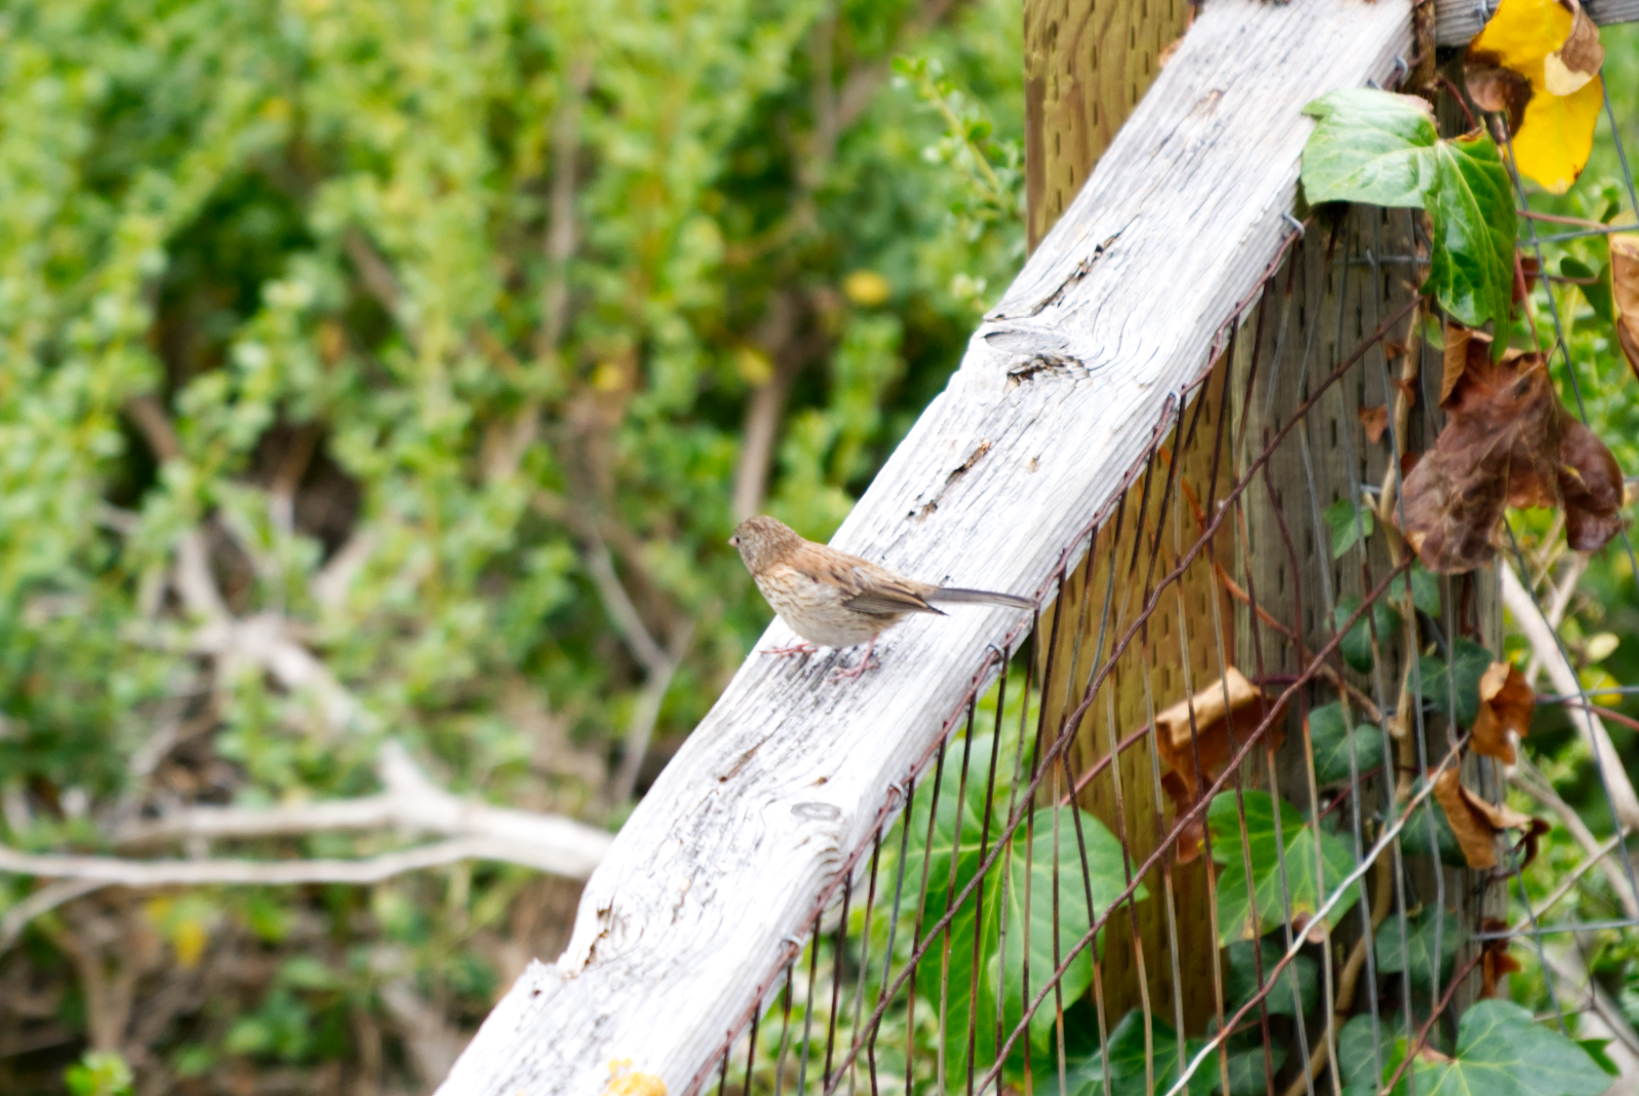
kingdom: Animalia
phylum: Chordata
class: Aves
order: Passeriformes
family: Passerellidae
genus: Junco
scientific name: Junco hyemalis
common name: Dark-eyed junco
